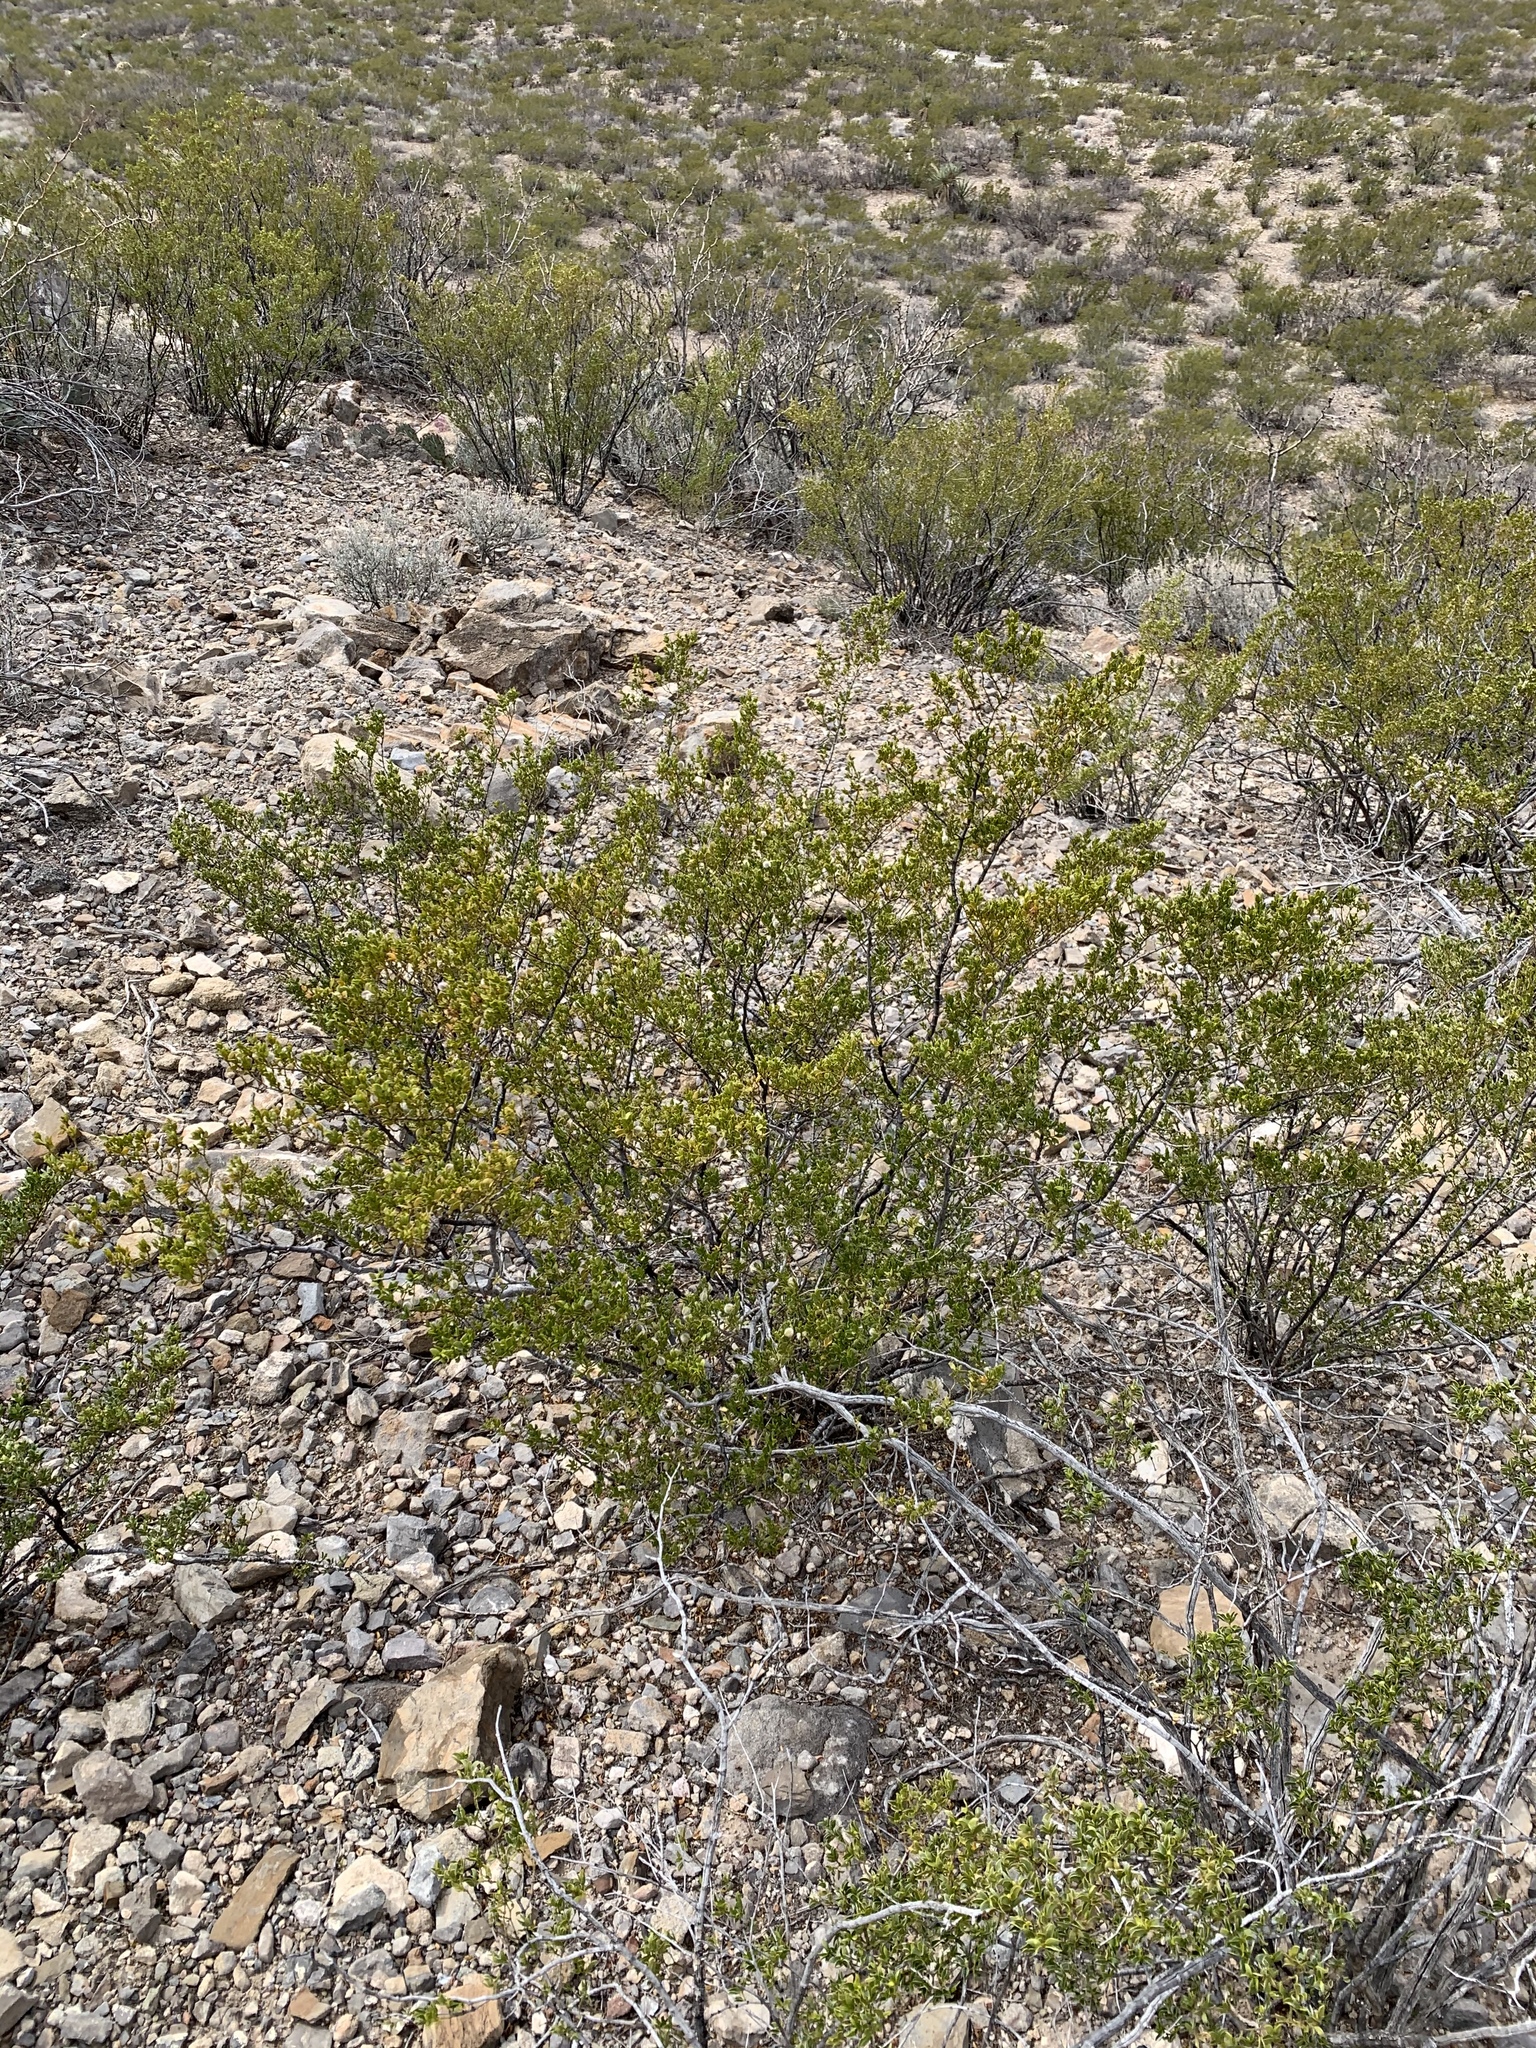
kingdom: Plantae
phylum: Tracheophyta
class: Magnoliopsida
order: Zygophyllales
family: Zygophyllaceae
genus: Larrea
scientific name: Larrea tridentata
